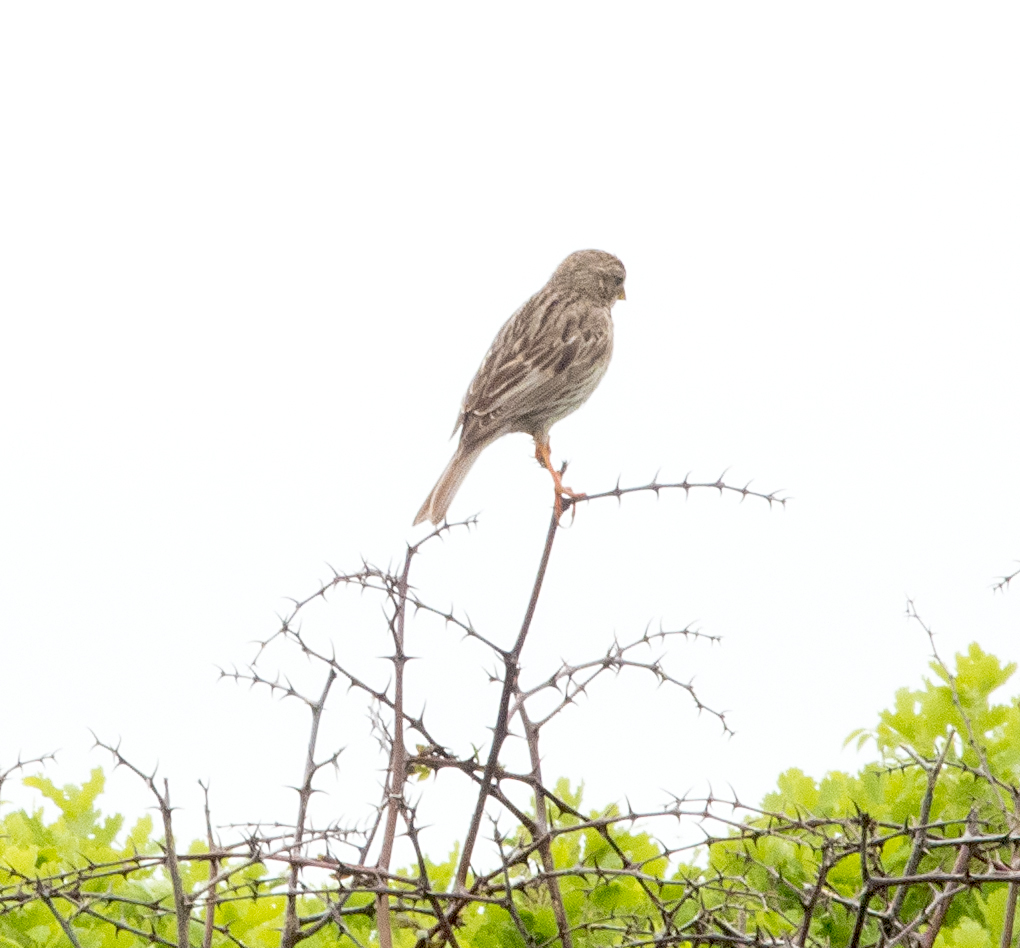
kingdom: Animalia
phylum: Chordata
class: Aves
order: Passeriformes
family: Emberizidae
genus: Emberiza
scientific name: Emberiza calandra
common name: Corn bunting
